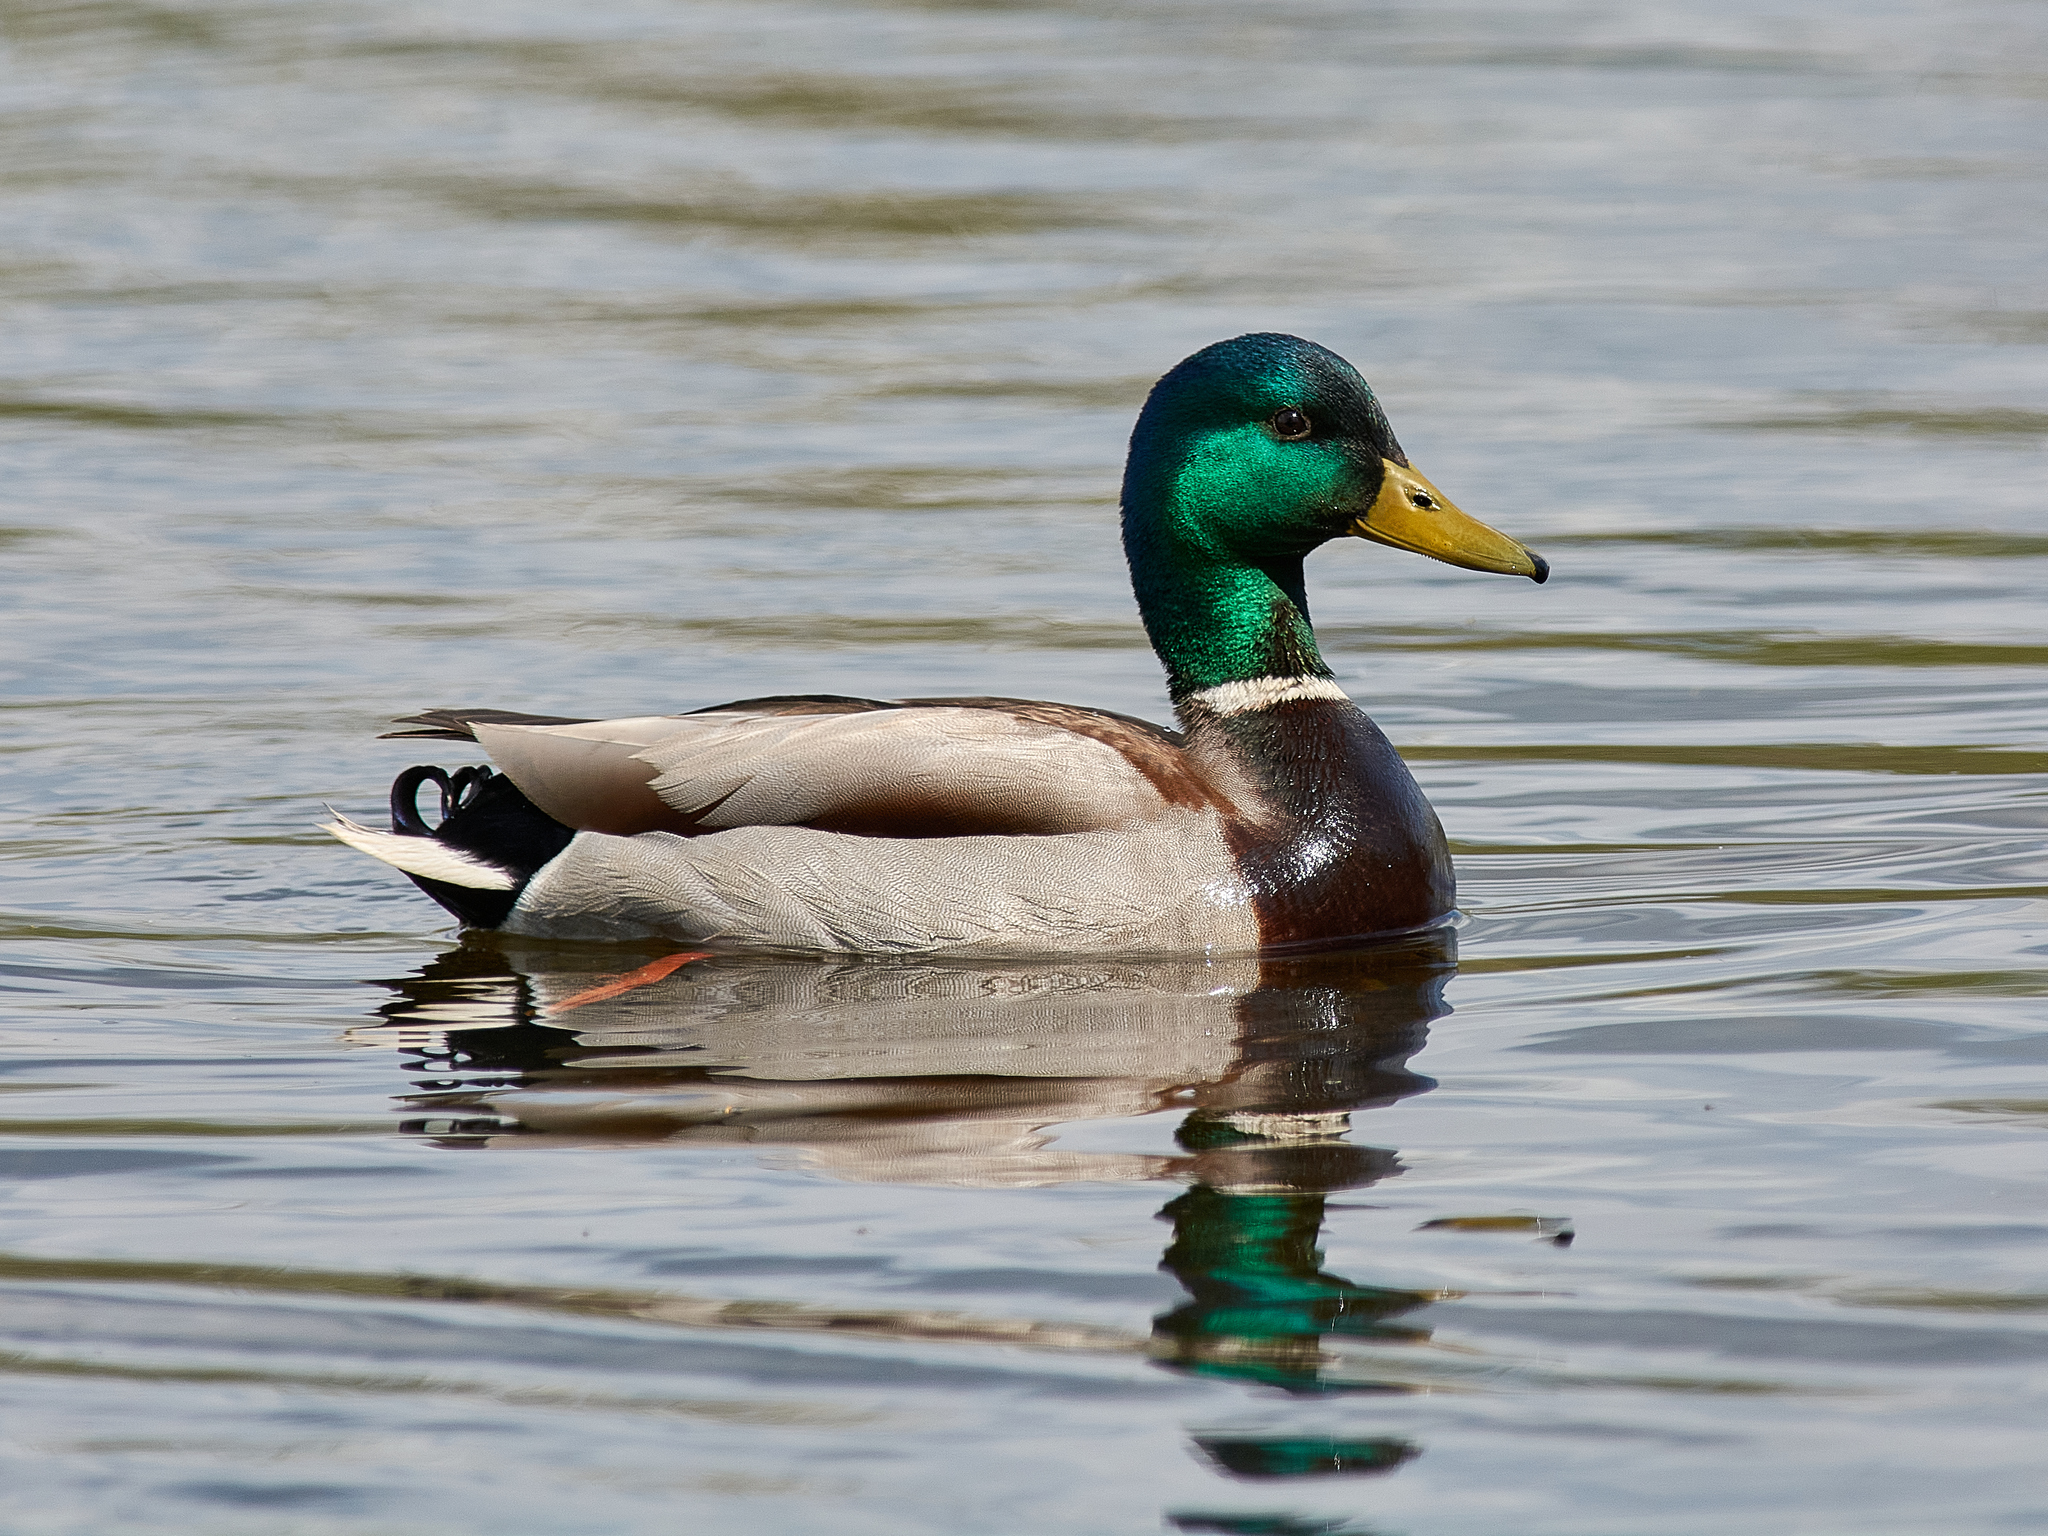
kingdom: Animalia
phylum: Chordata
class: Aves
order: Anseriformes
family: Anatidae
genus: Anas
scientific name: Anas platyrhynchos
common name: Mallard
